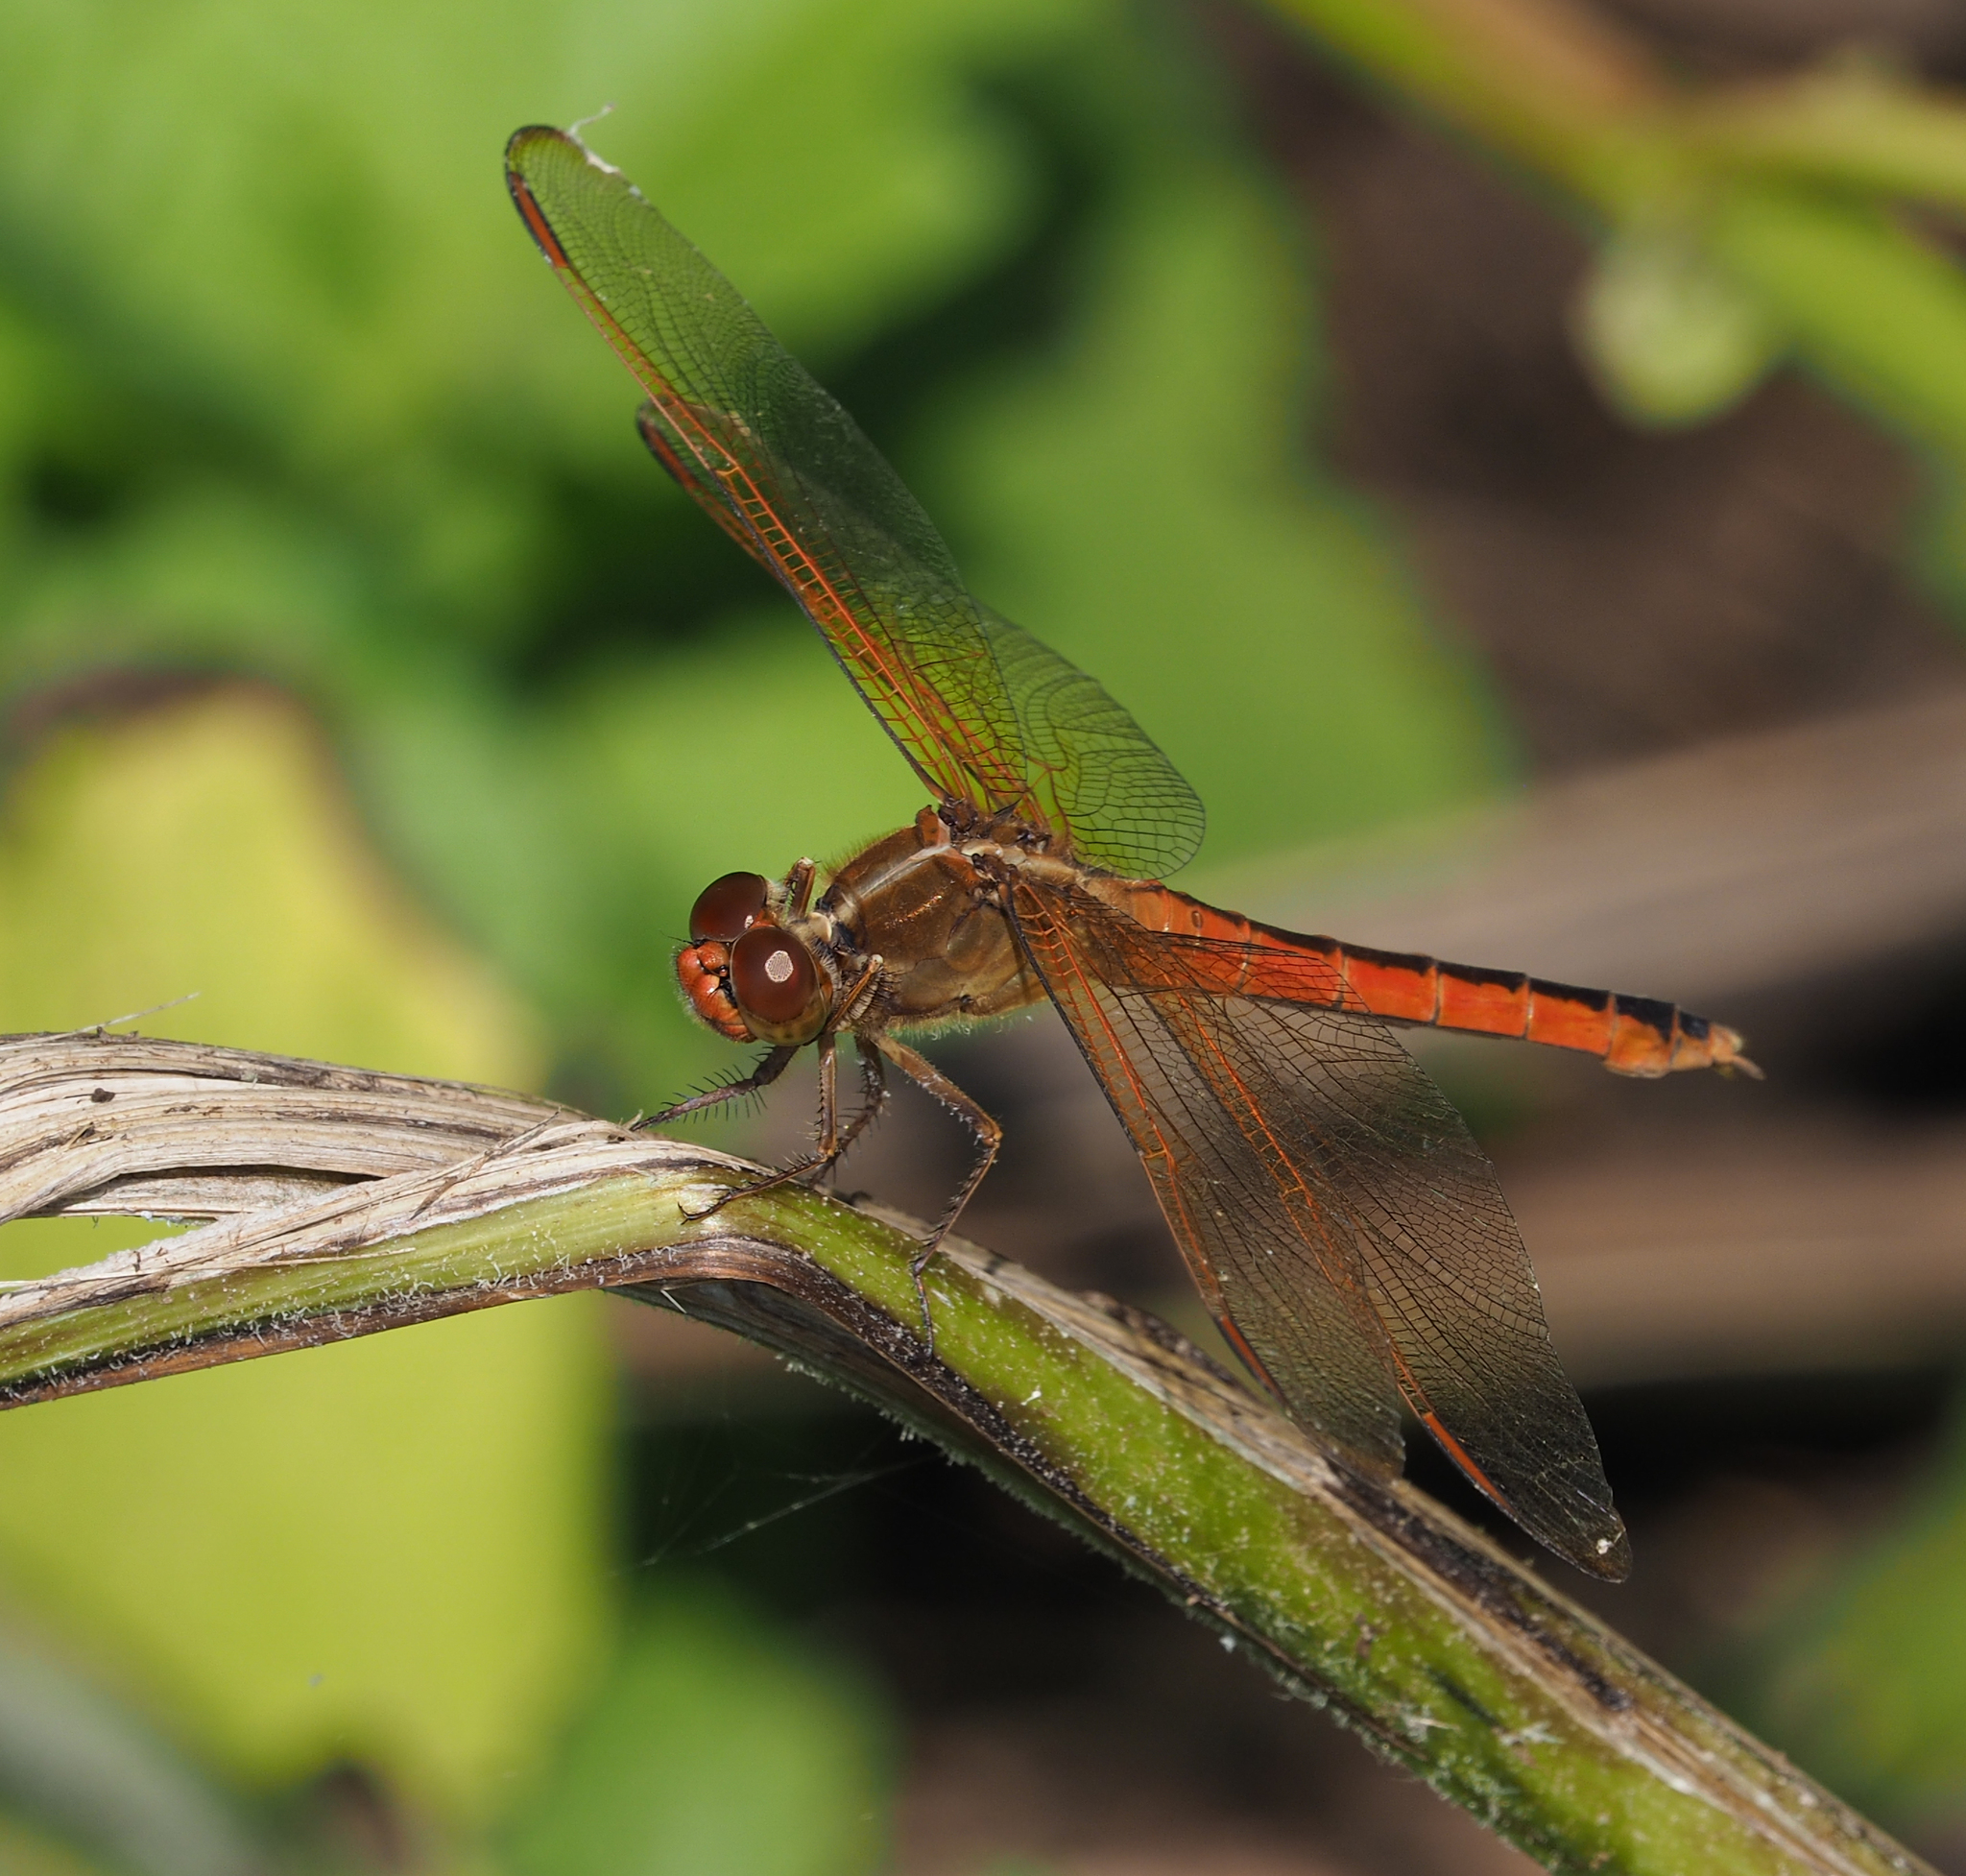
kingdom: Animalia
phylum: Arthropoda
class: Insecta
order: Odonata
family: Libellulidae
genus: Libellula
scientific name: Libellula needhami
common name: Needham's skimmer
